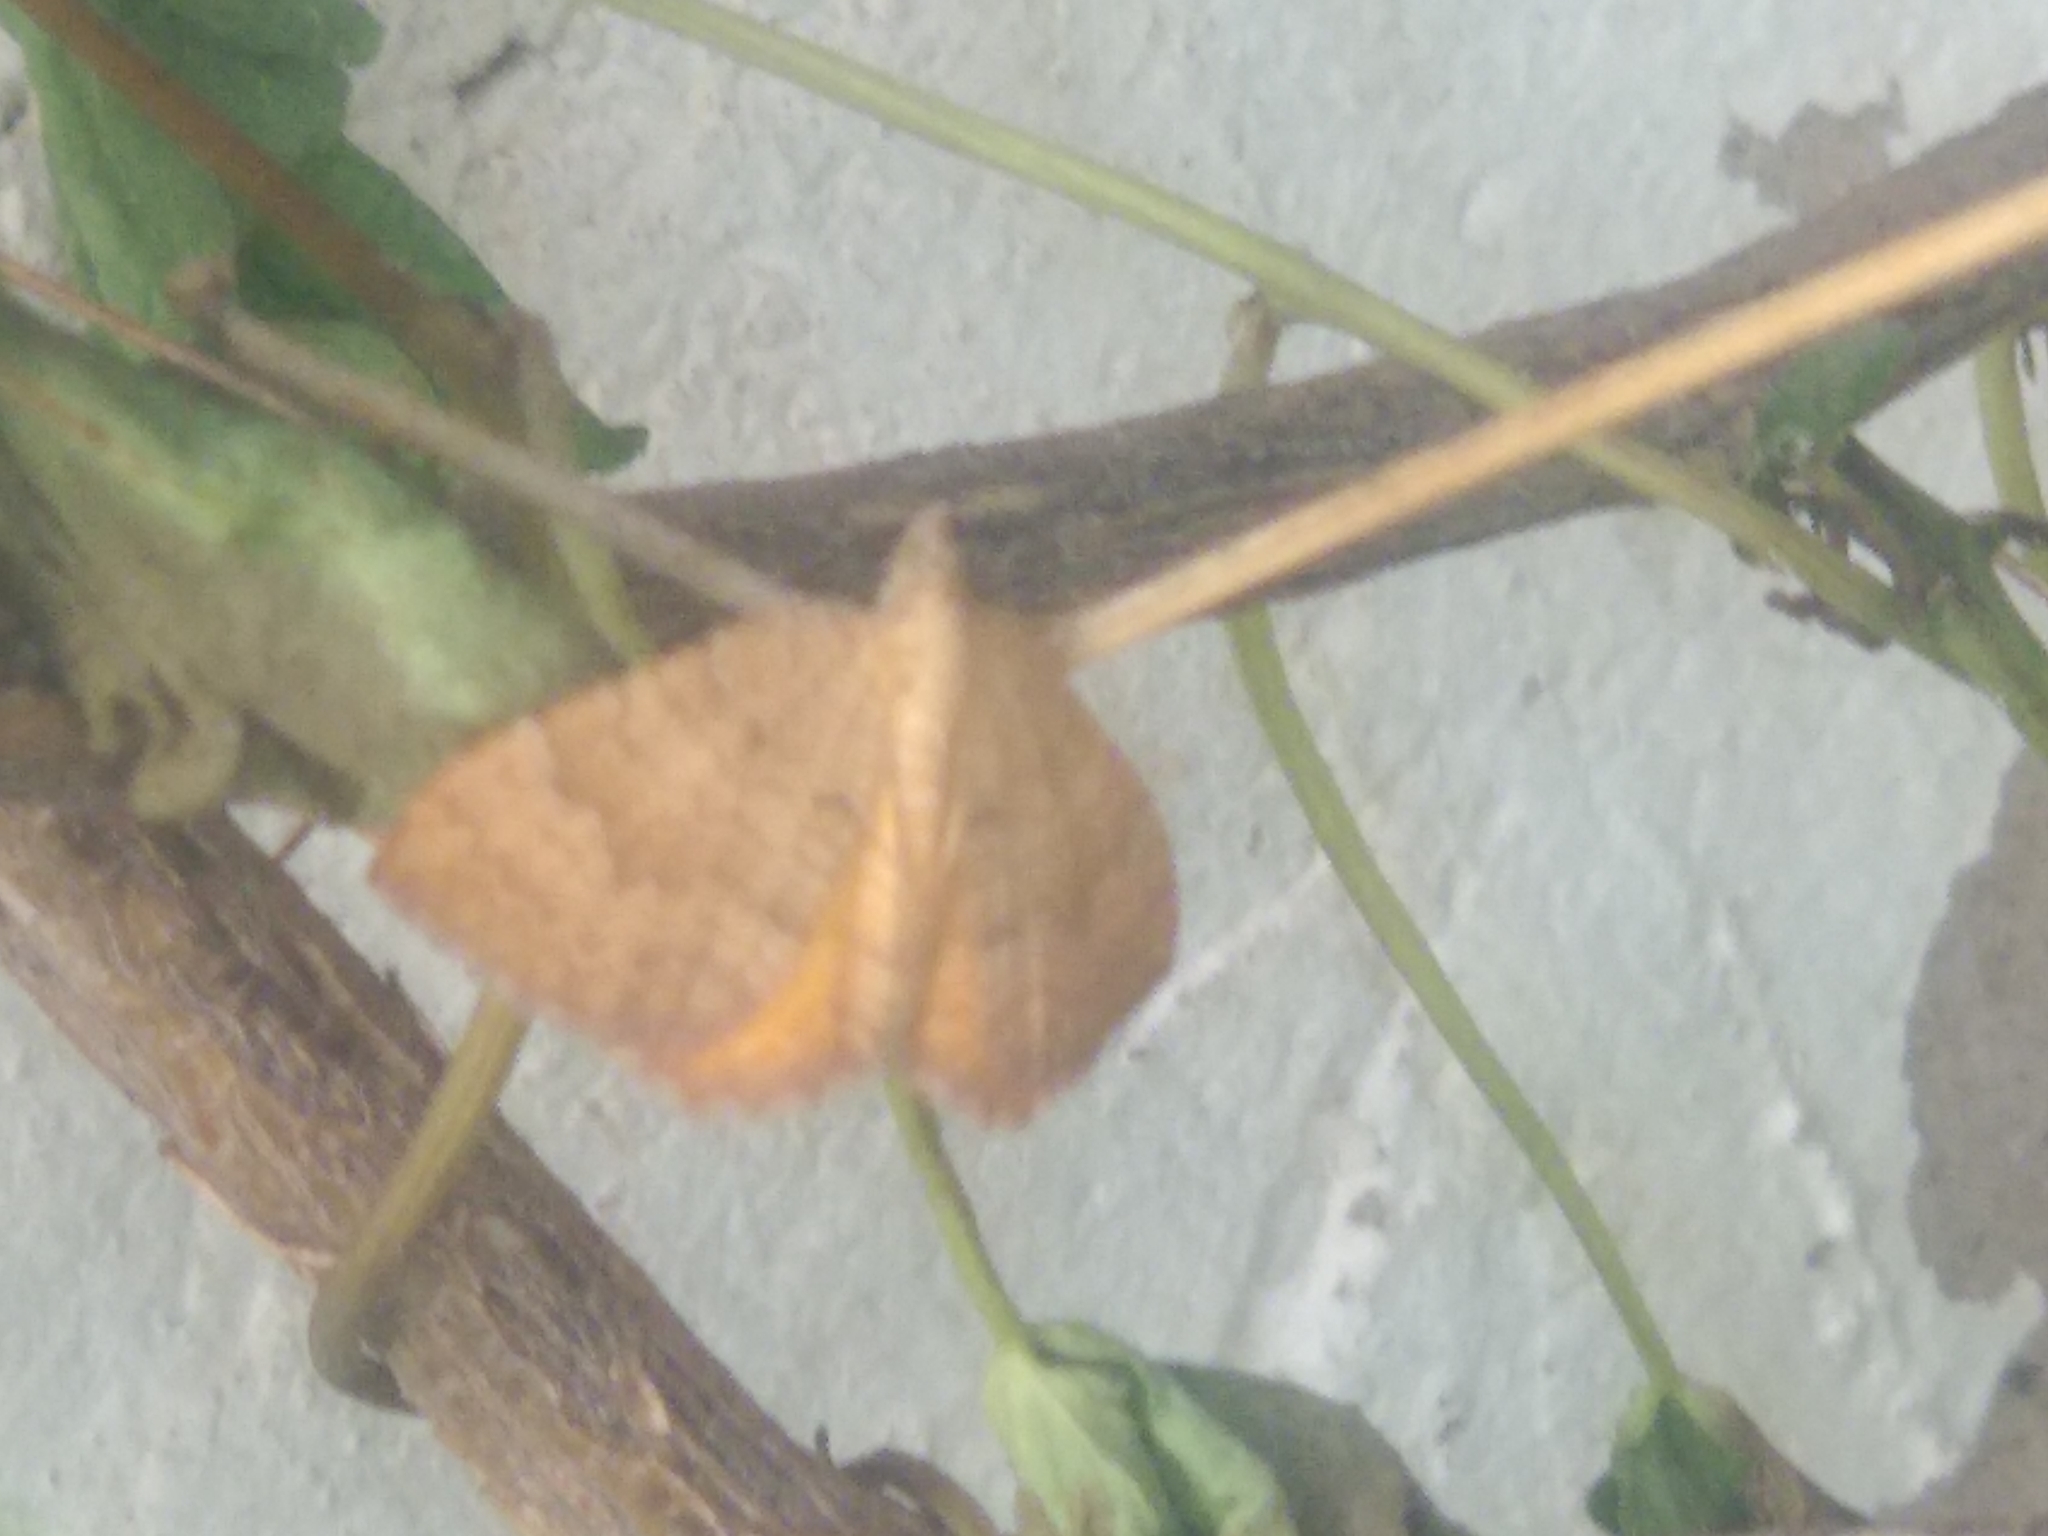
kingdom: Animalia
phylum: Arthropoda
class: Insecta
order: Lepidoptera
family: Geometridae
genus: Camptogramma
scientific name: Camptogramma bilineata
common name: Yellow shell
